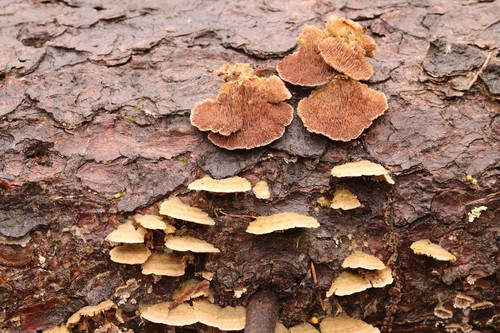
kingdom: Fungi
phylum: Basidiomycota
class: Agaricomycetes
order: Hymenochaetales
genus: Trichaptum
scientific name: Trichaptum fuscoviolaceum
